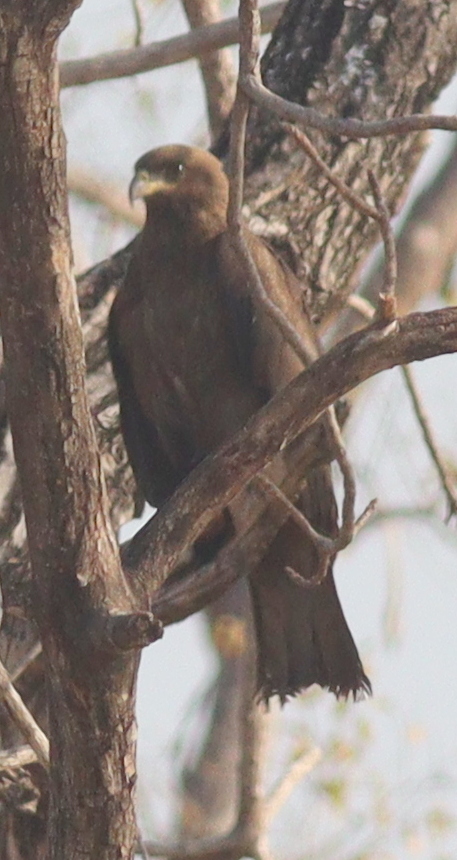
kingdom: Animalia
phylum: Chordata
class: Aves
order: Accipitriformes
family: Accipitridae
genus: Milvus
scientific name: Milvus migrans
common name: Black kite
